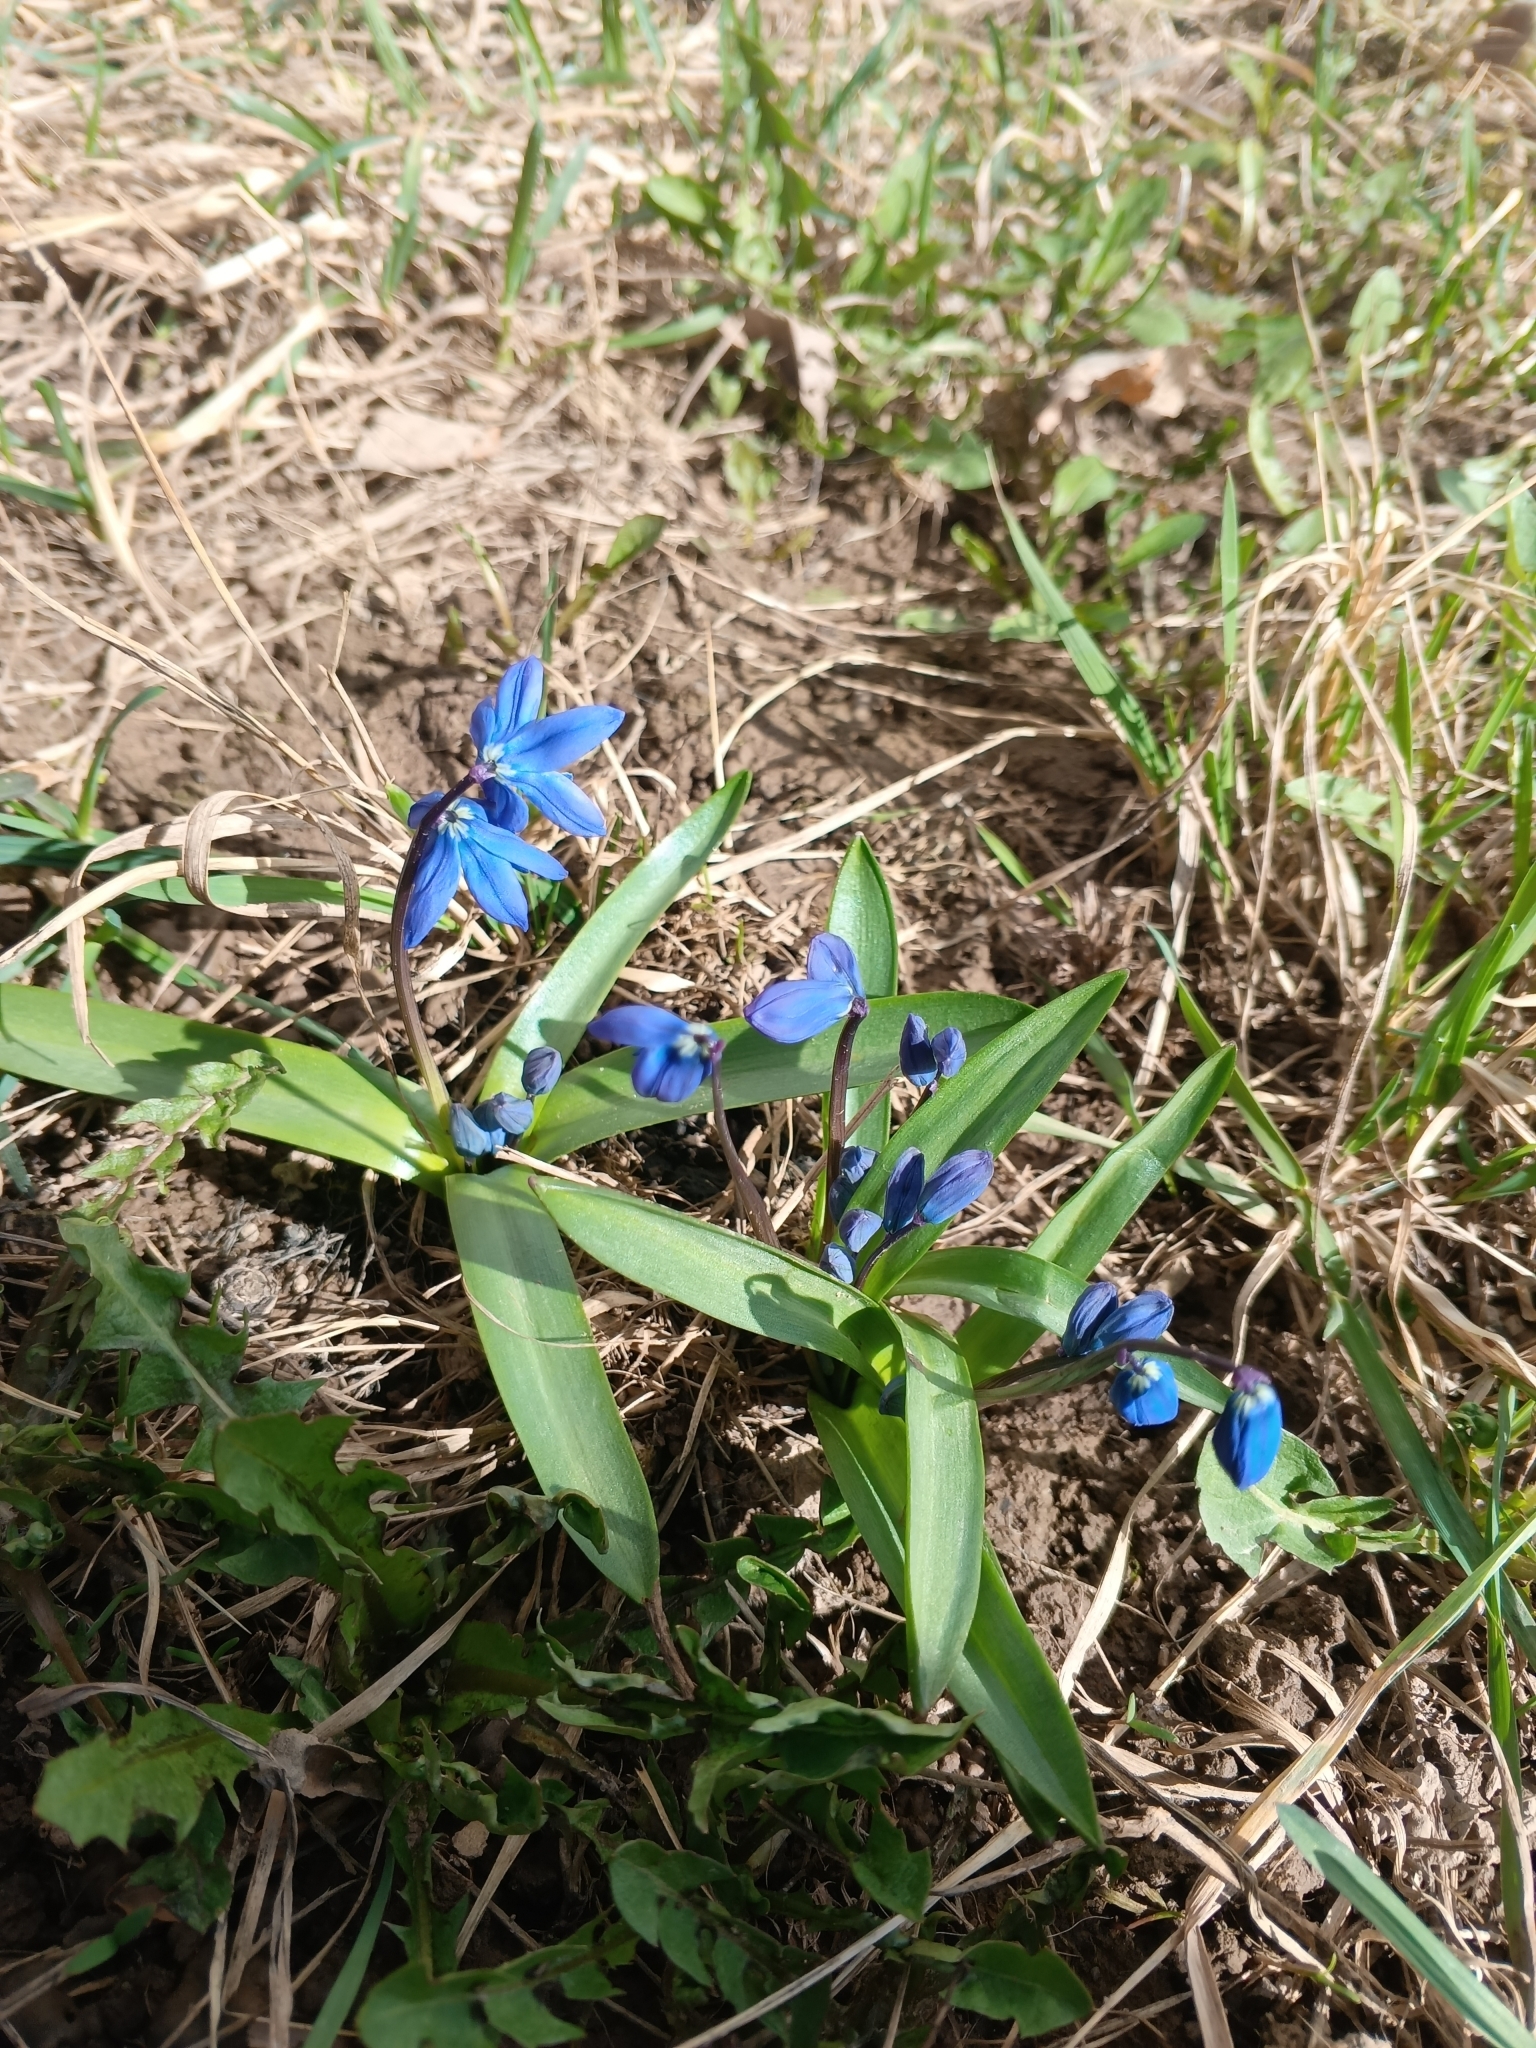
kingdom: Plantae
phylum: Tracheophyta
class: Liliopsida
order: Asparagales
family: Asparagaceae
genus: Scilla
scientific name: Scilla siberica
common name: Siberian squill
